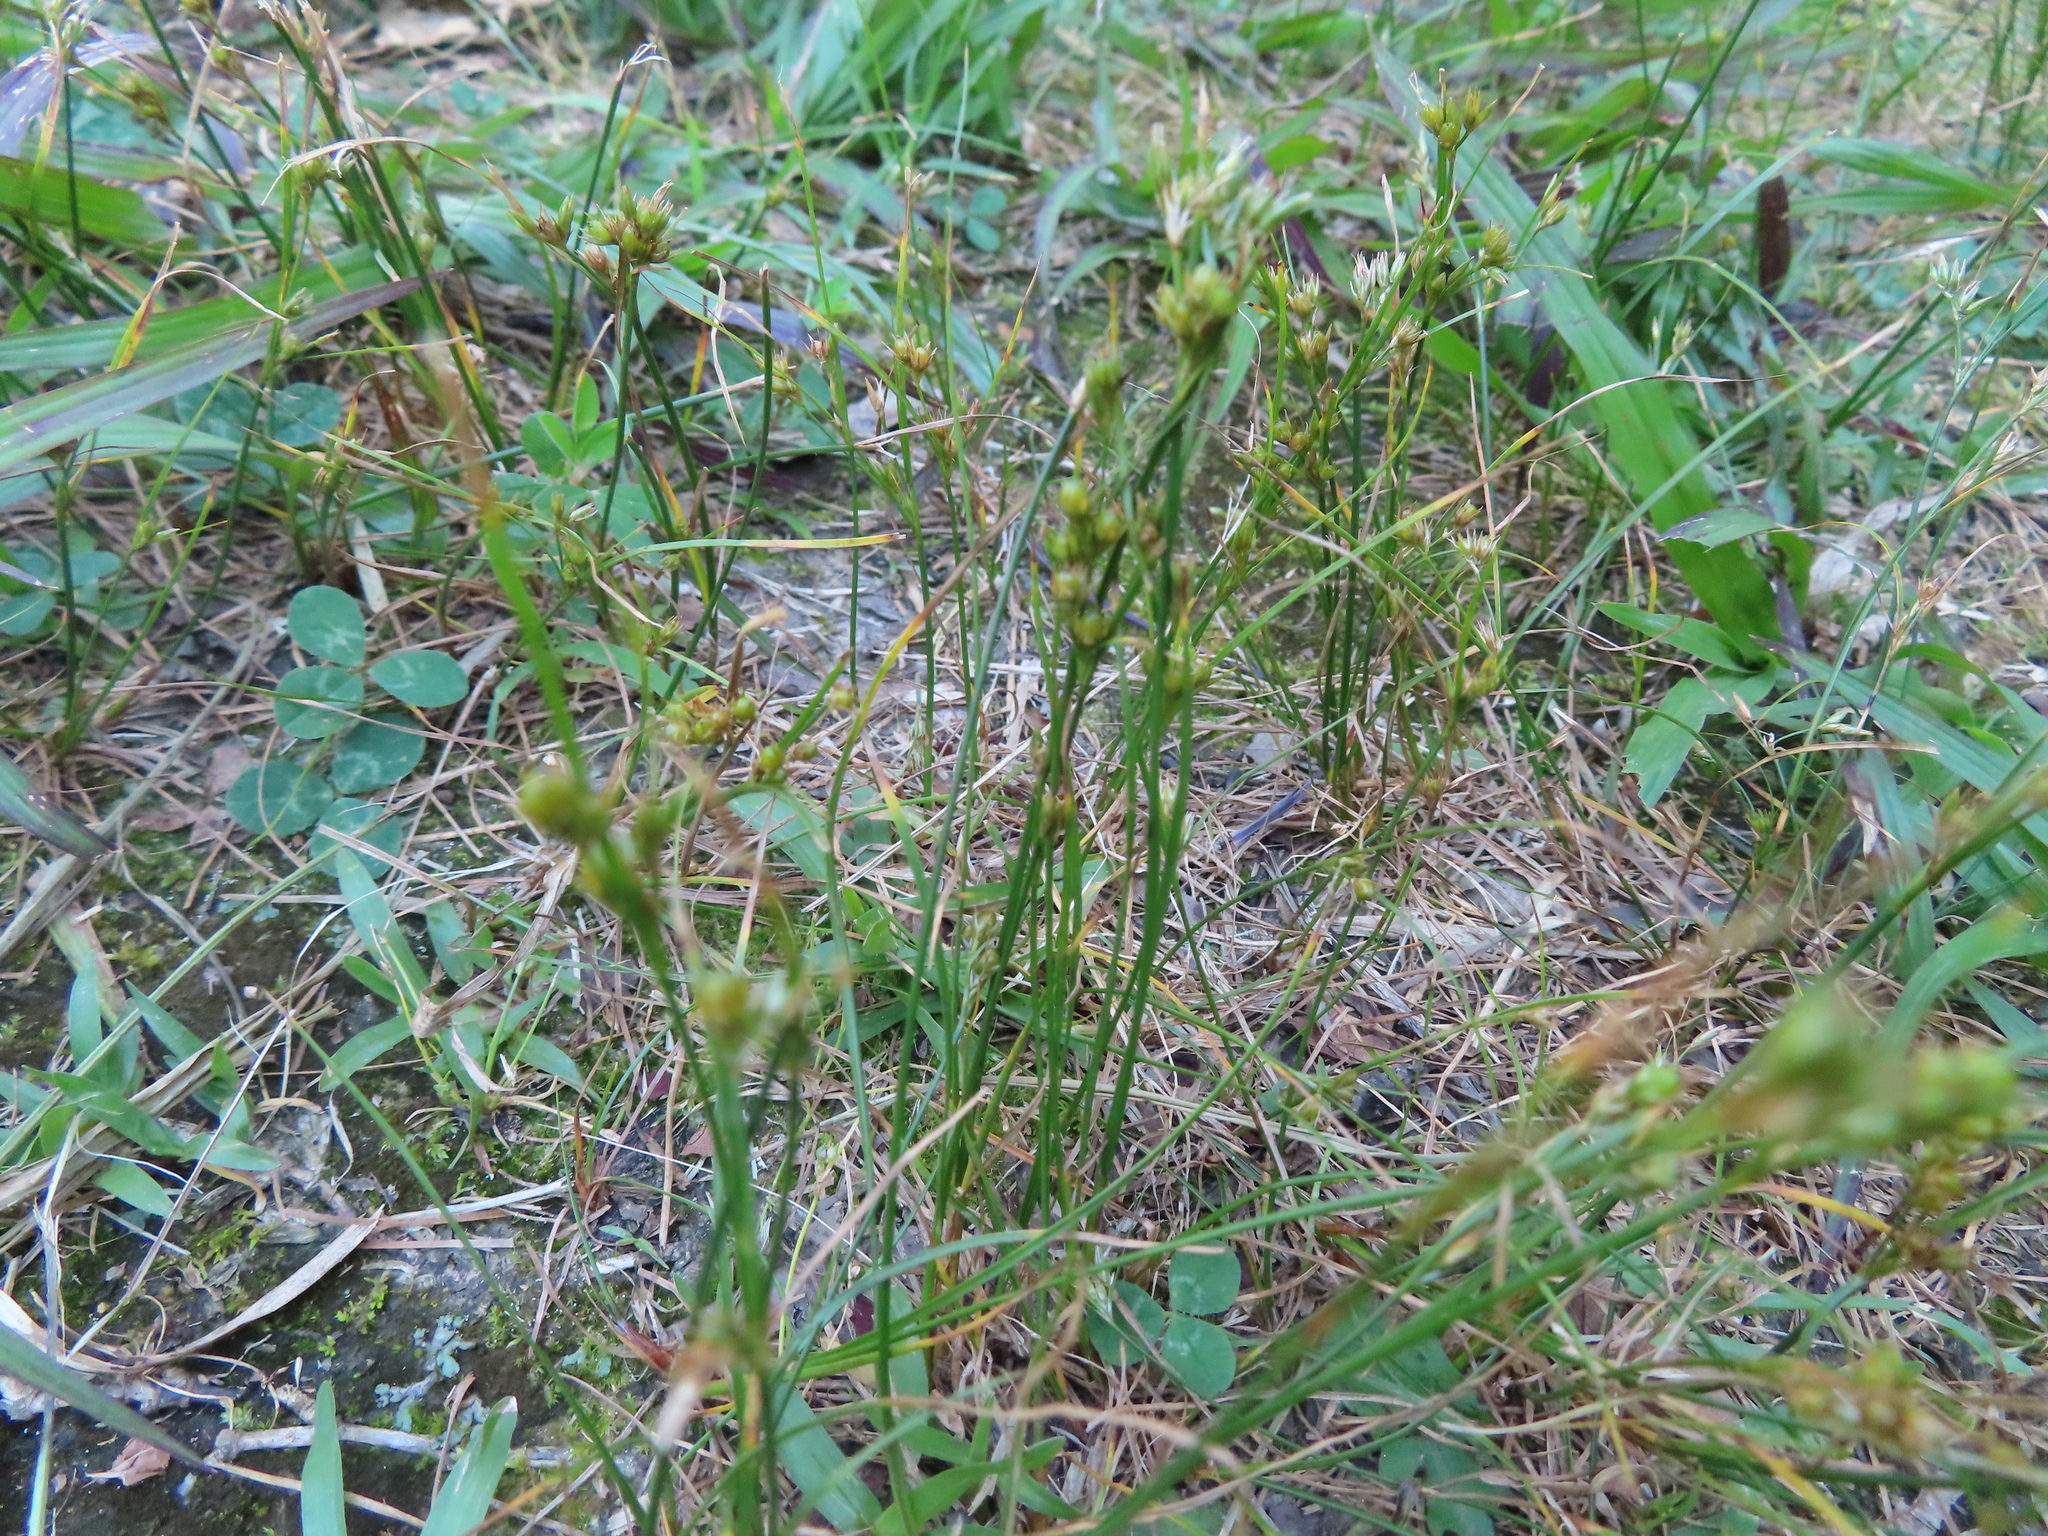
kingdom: Plantae
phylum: Tracheophyta
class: Liliopsida
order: Poales
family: Juncaceae
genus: Juncus
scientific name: Juncus tenuis
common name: Slender rush
